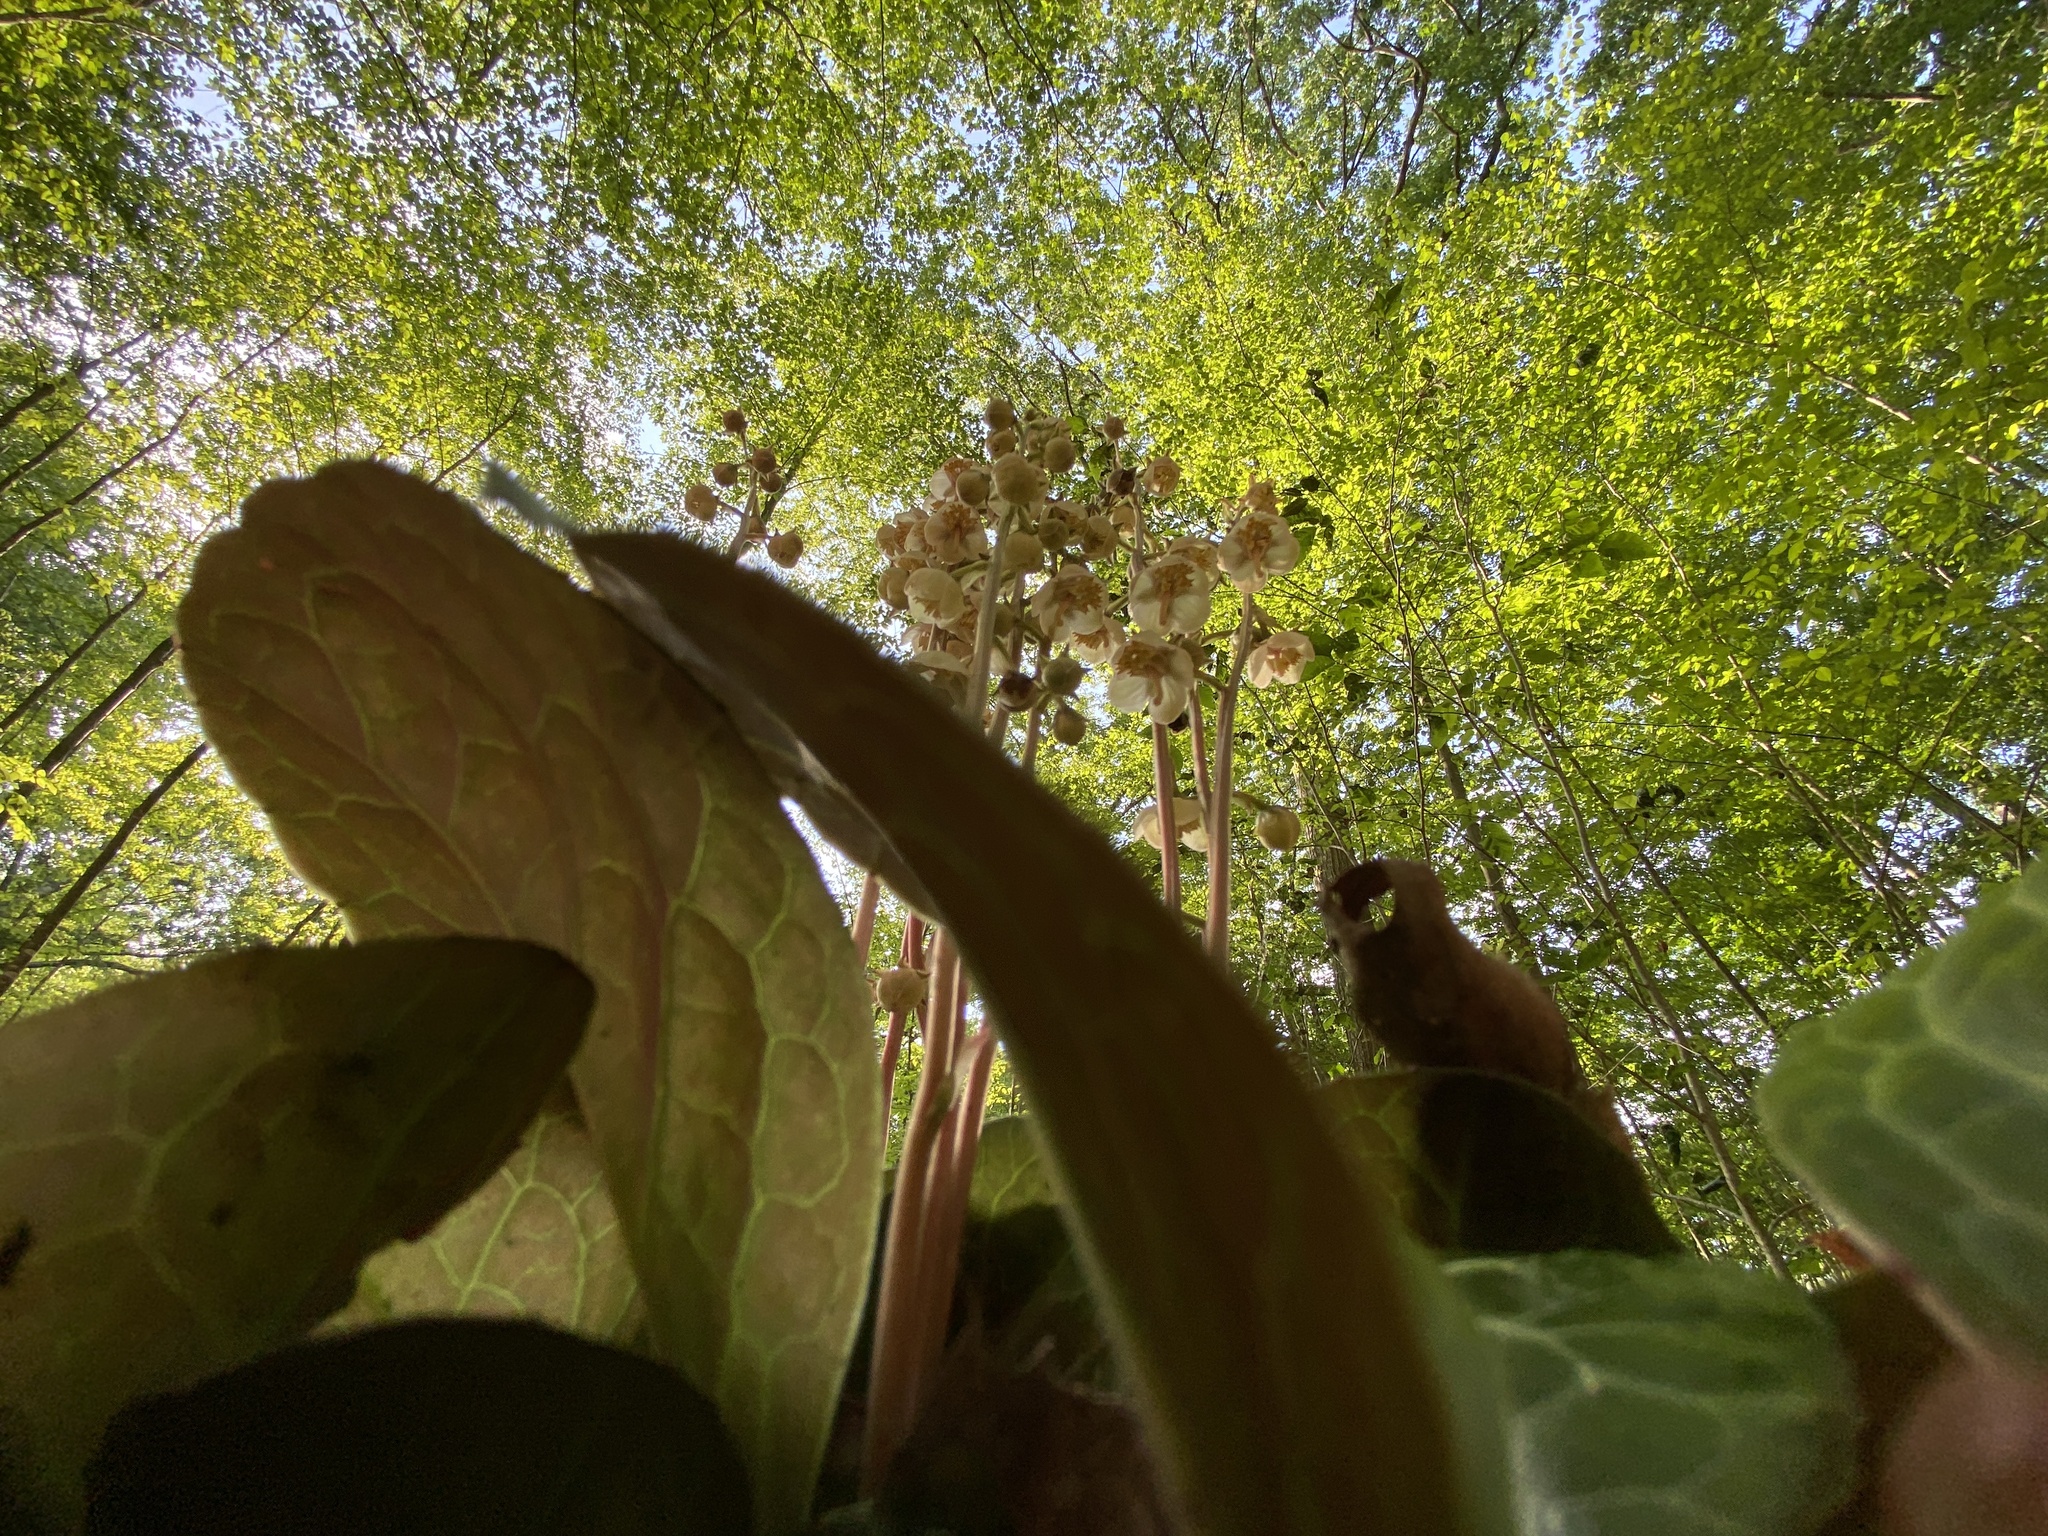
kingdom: Plantae
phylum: Tracheophyta
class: Magnoliopsida
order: Ericales
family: Ericaceae
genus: Pyrola
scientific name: Pyrola americana
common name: American wintergreen
